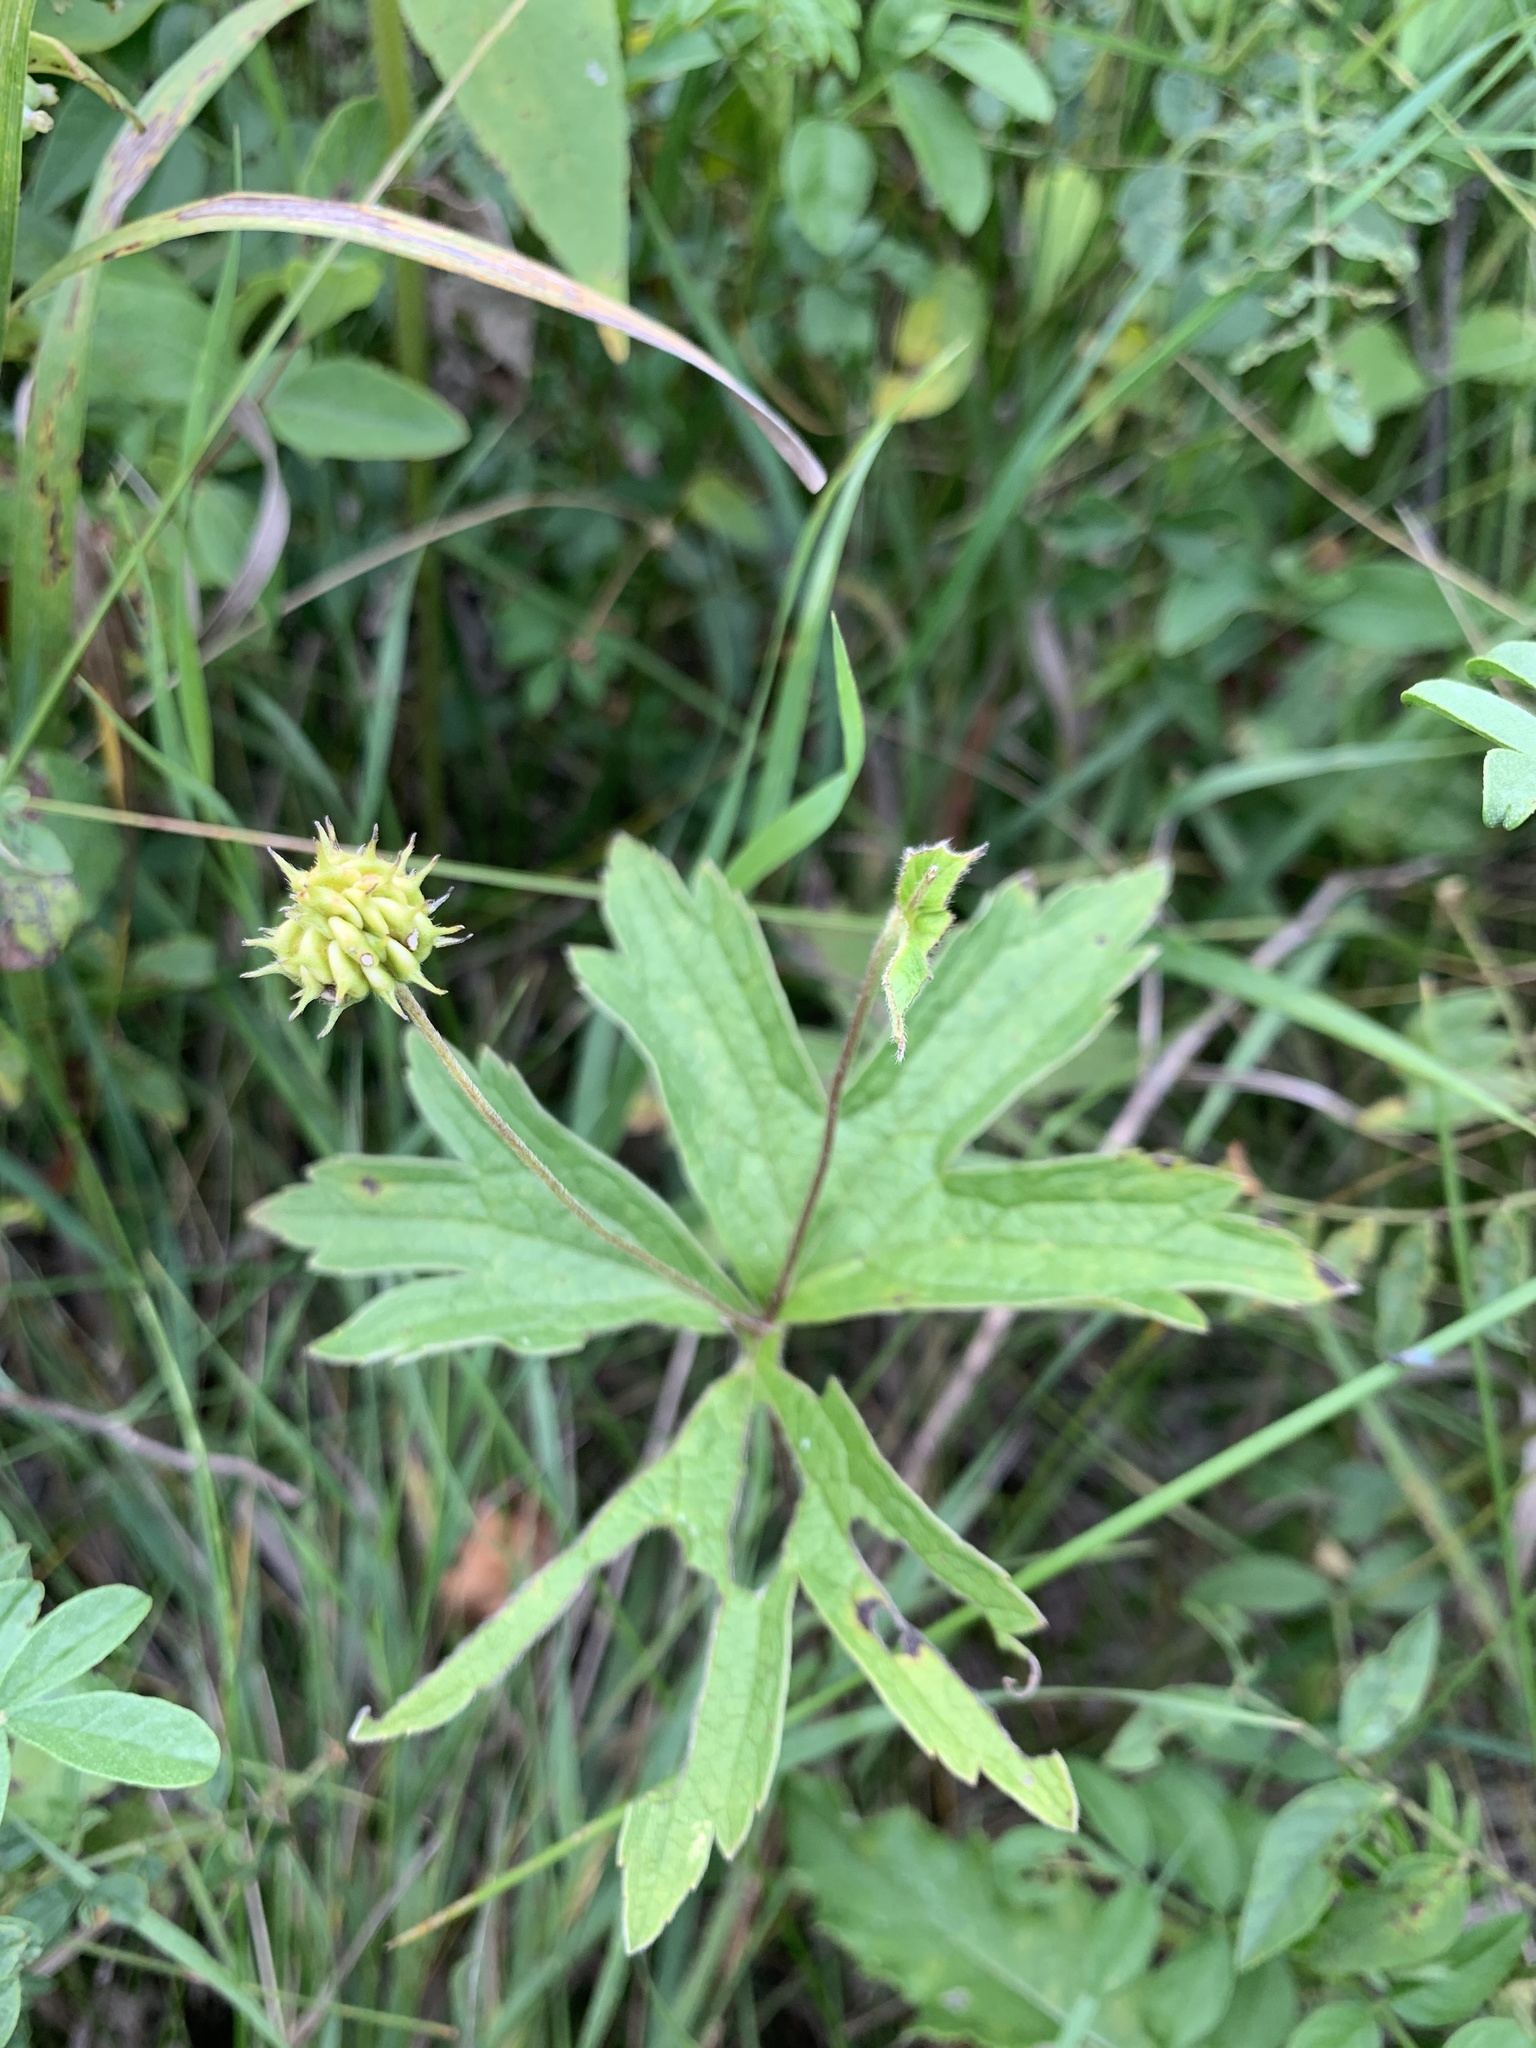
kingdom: Plantae
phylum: Tracheophyta
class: Magnoliopsida
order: Ranunculales
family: Ranunculaceae
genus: Anemonastrum
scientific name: Anemonastrum canadense
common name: Canada anemone
